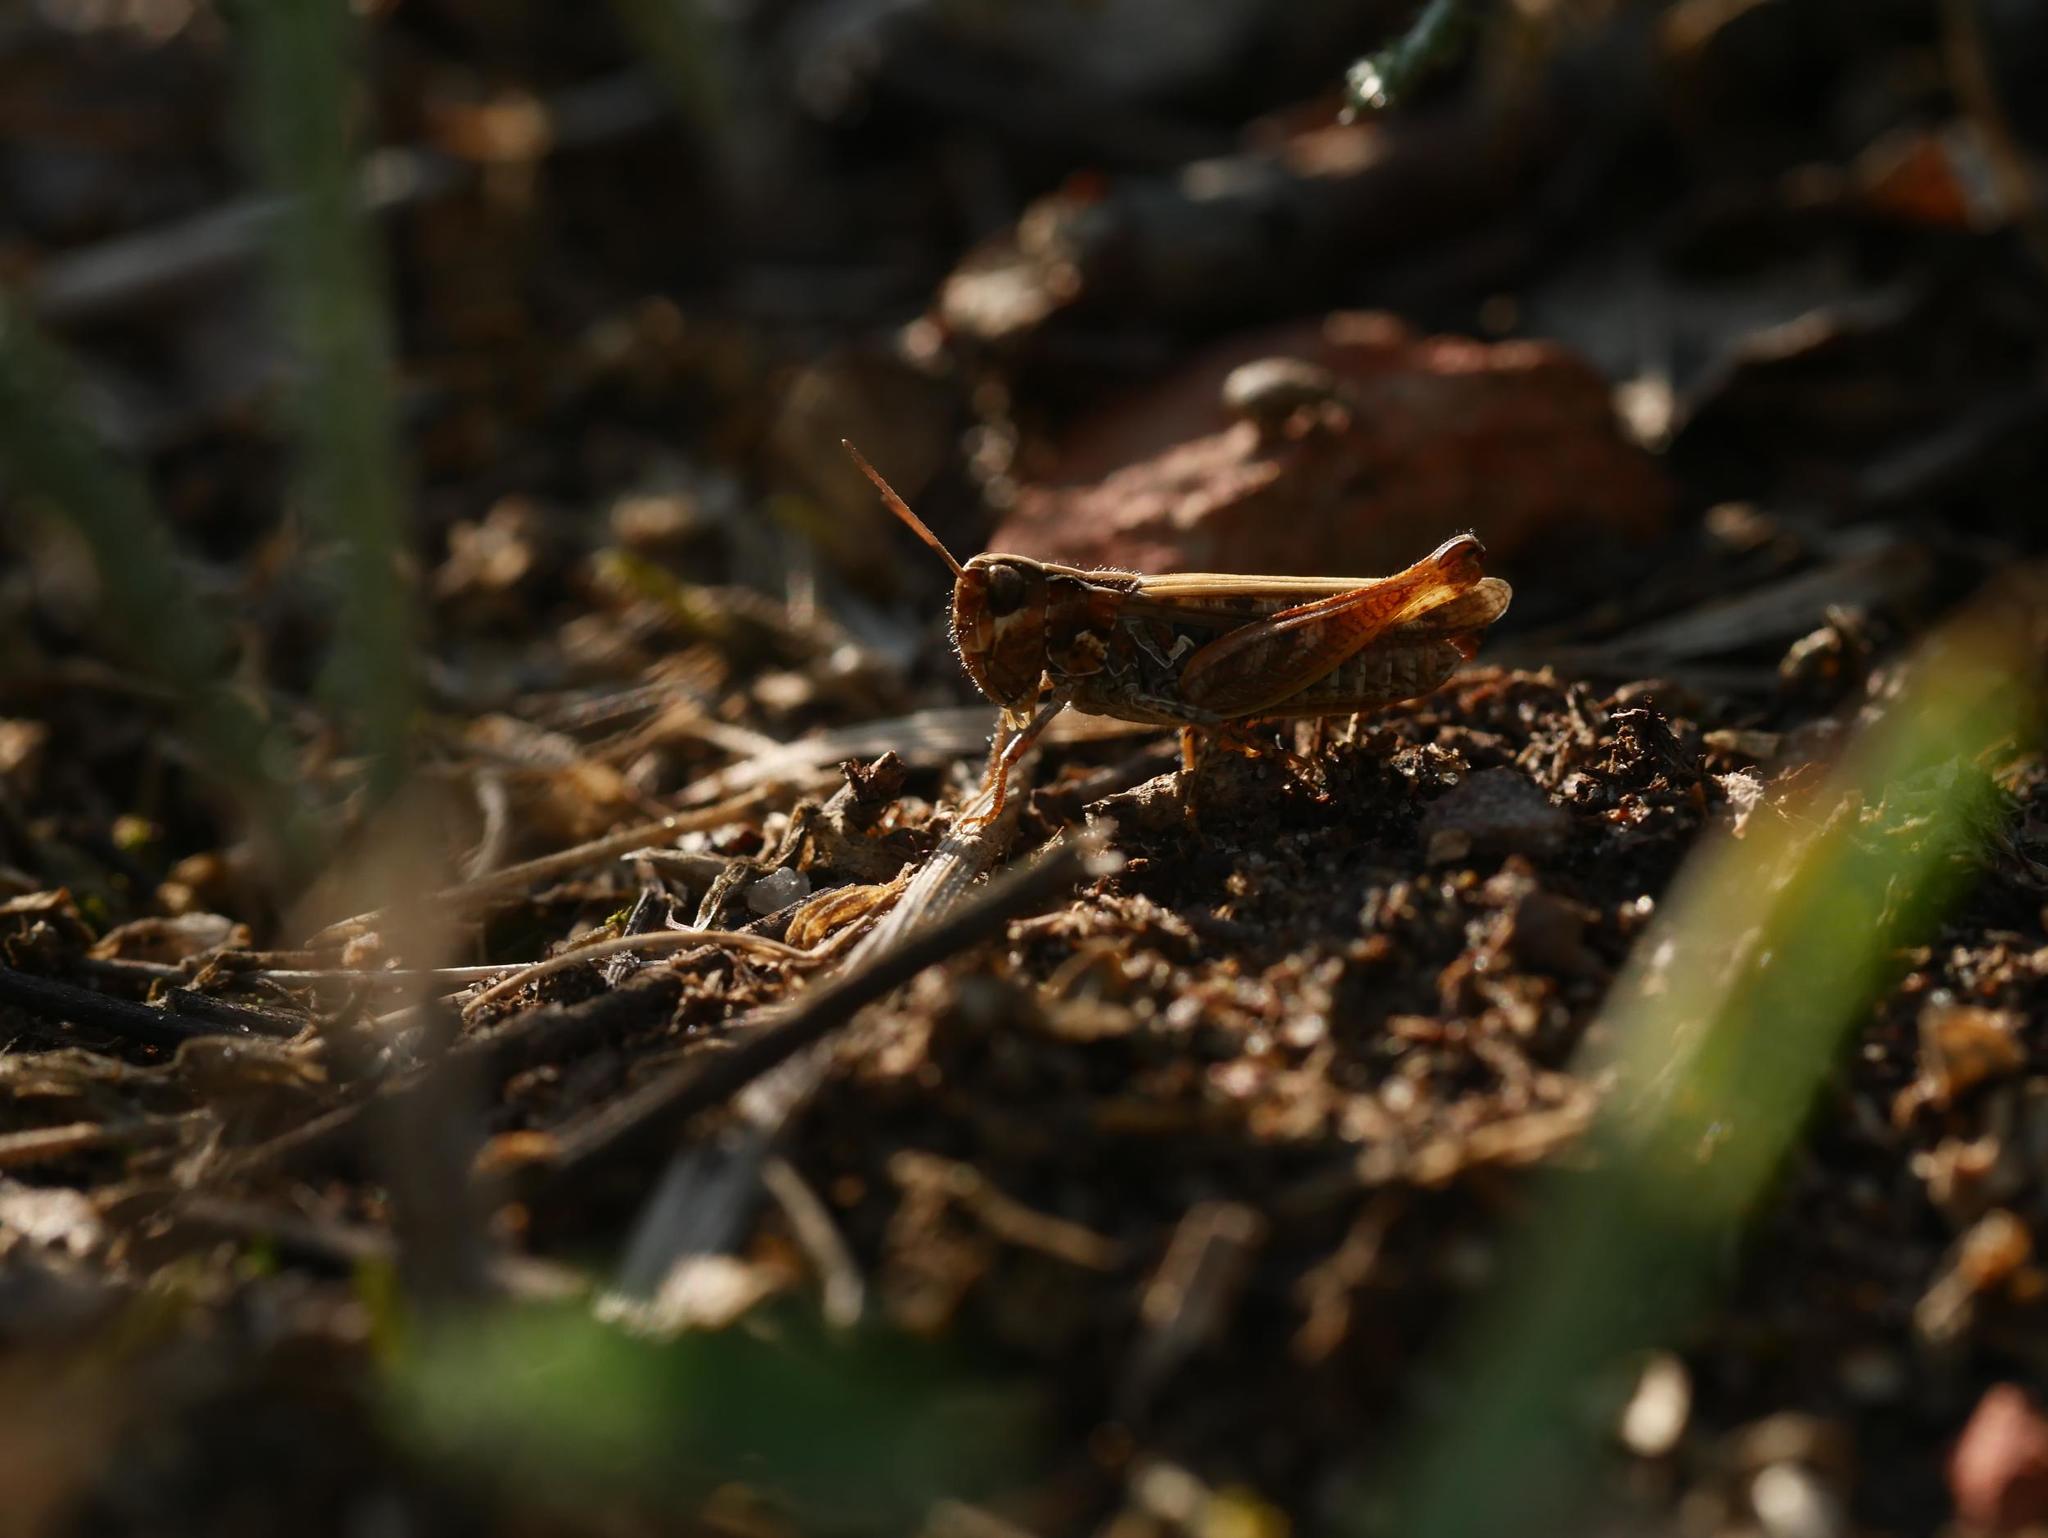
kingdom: Animalia
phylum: Arthropoda
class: Insecta
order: Orthoptera
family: Acrididae
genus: Myrmeleotettix
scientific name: Myrmeleotettix maculatus
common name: Mottled grasshopper
